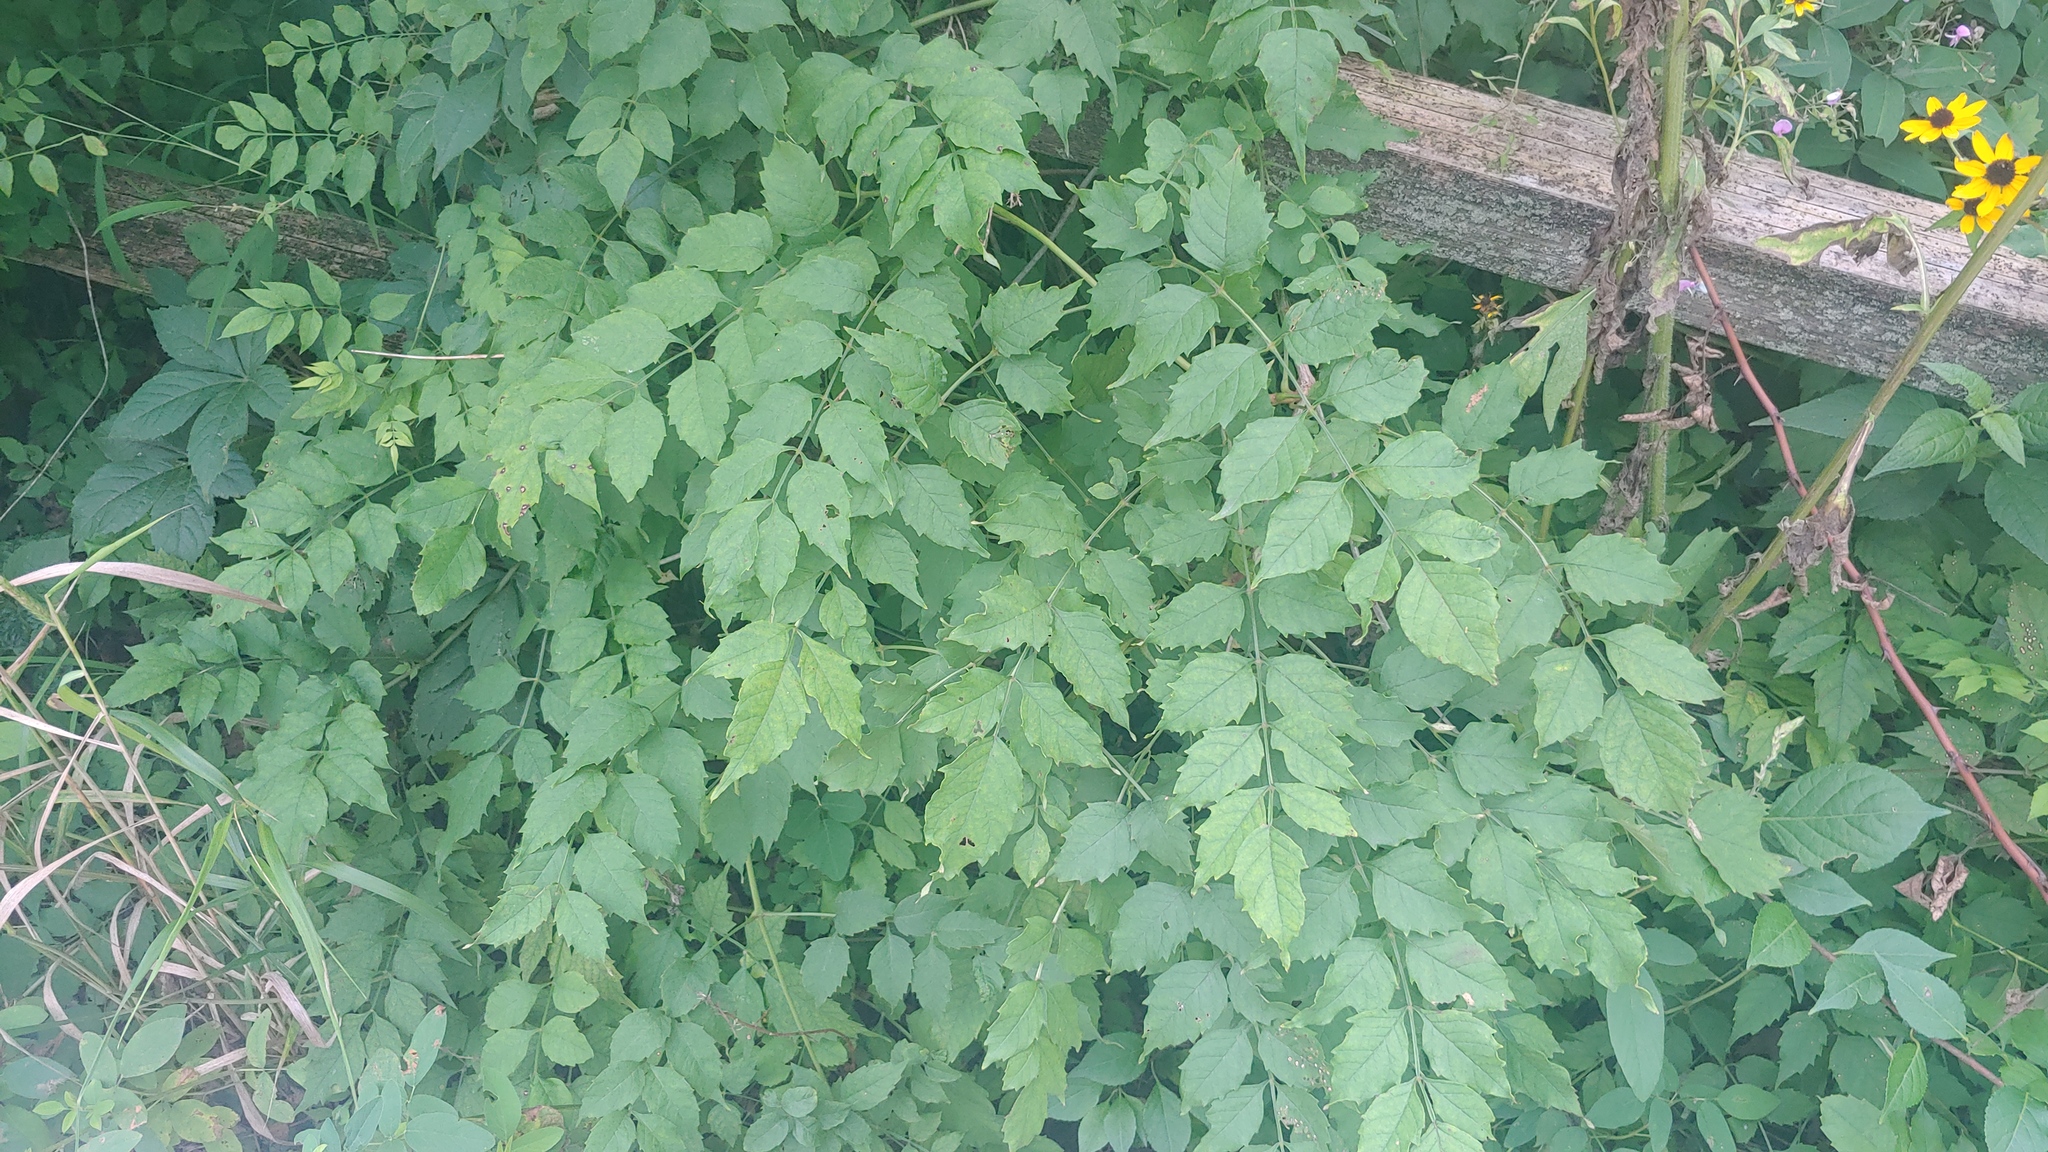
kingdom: Plantae
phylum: Tracheophyta
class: Magnoliopsida
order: Lamiales
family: Bignoniaceae
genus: Campsis
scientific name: Campsis radicans
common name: Trumpet-creeper
